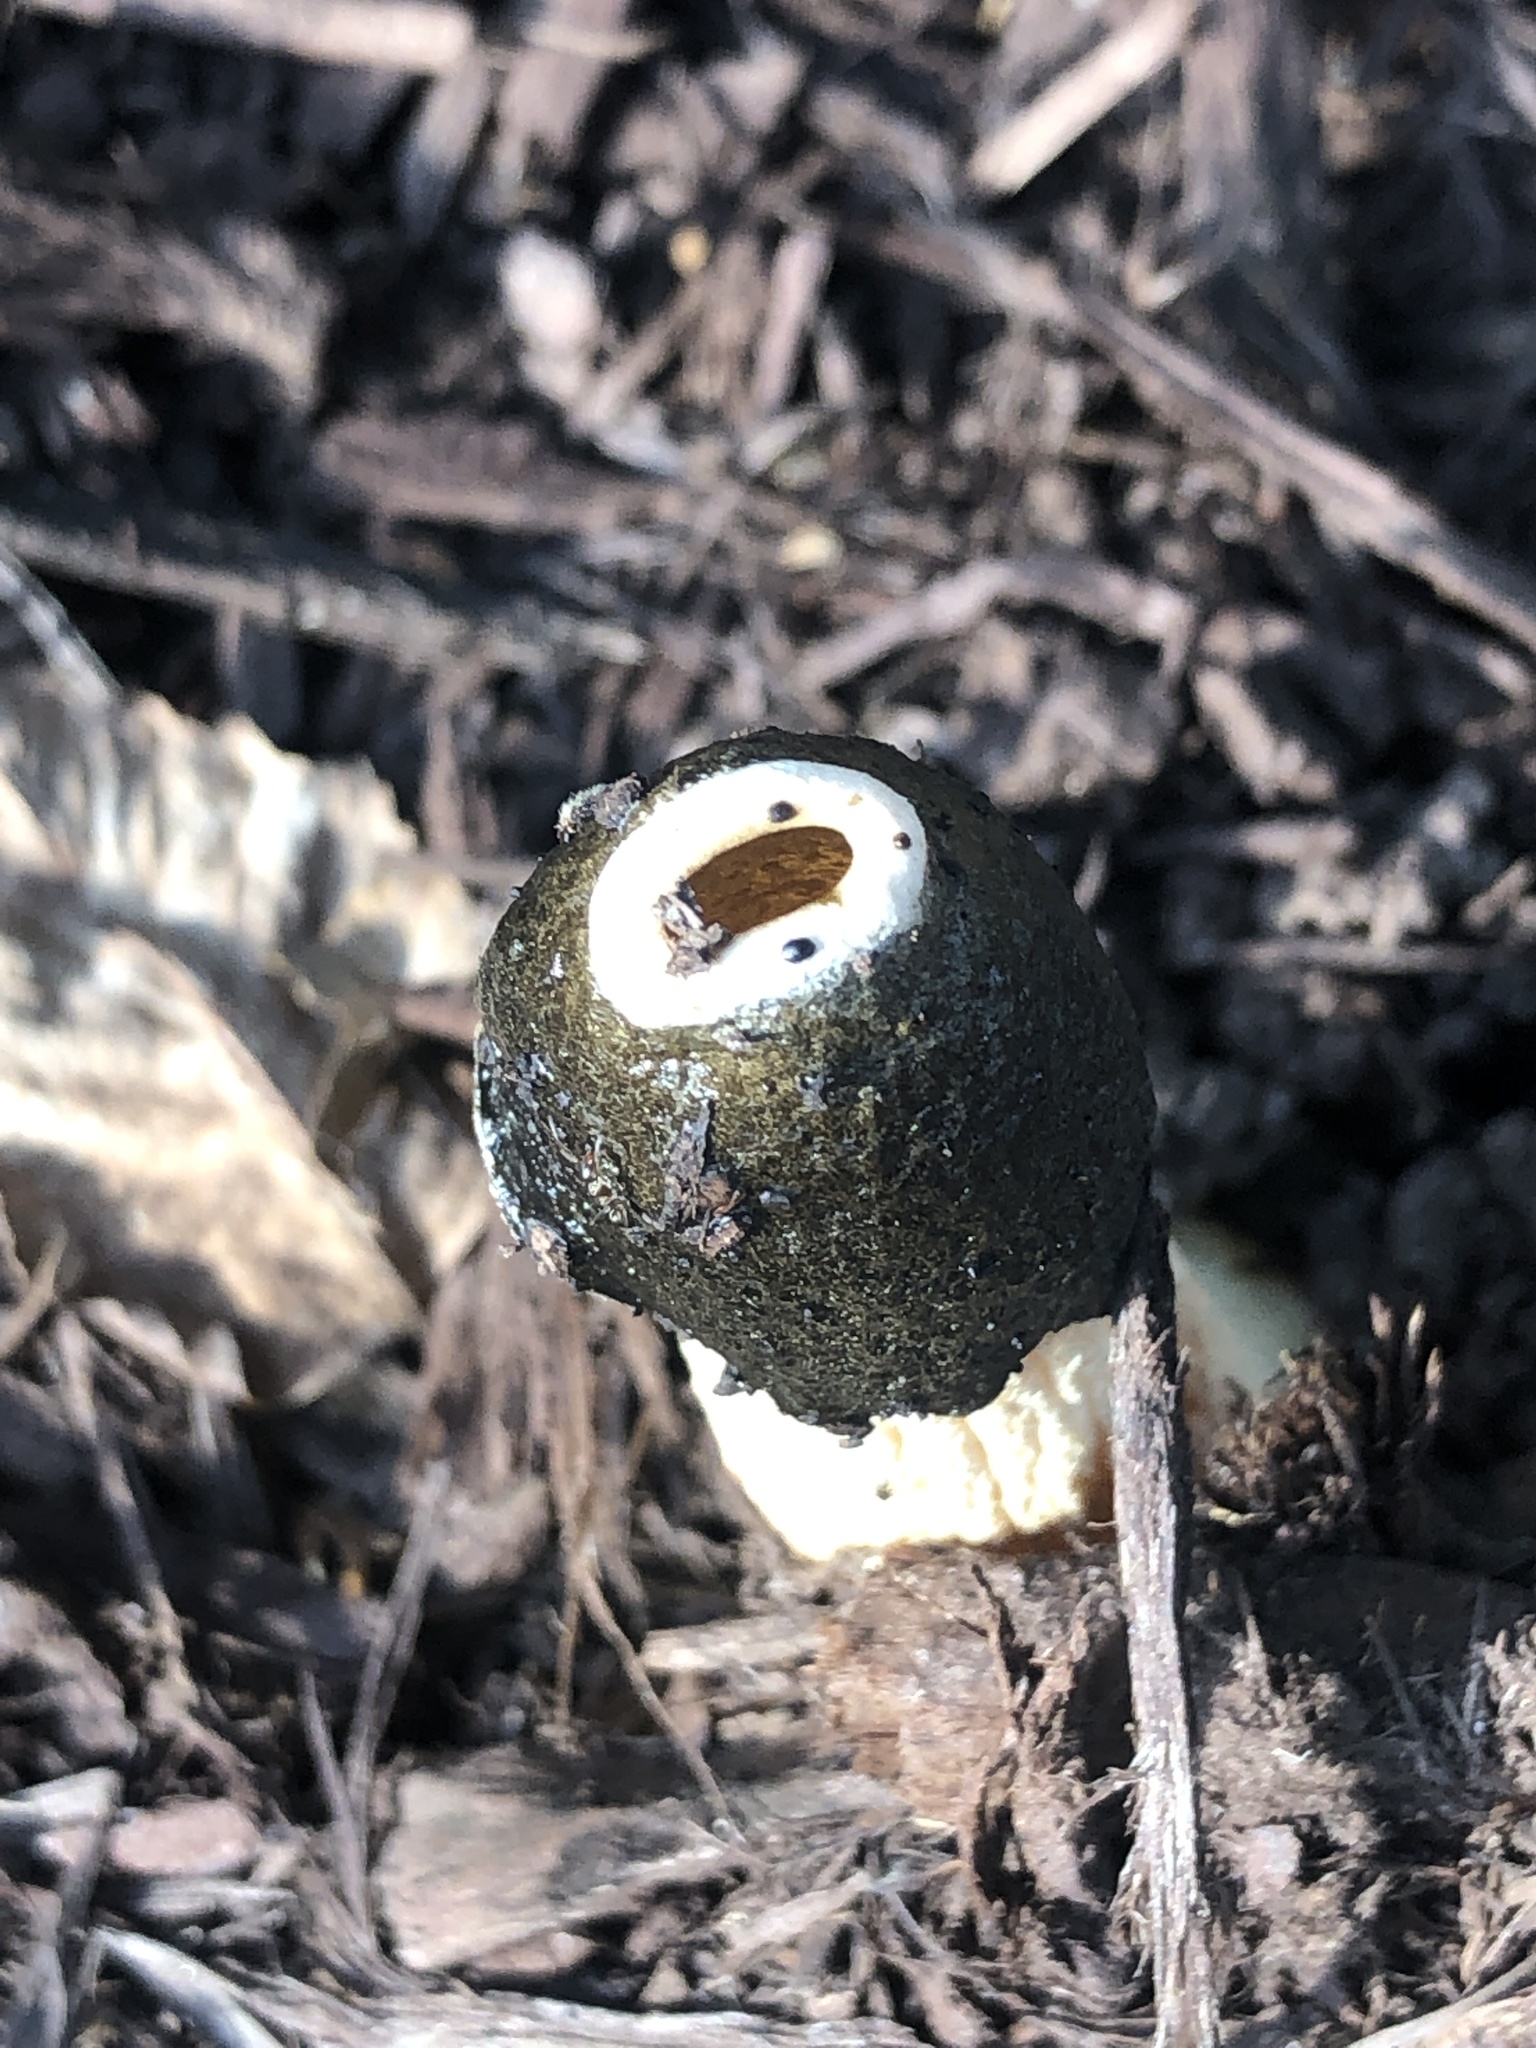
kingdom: Fungi
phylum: Basidiomycota
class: Agaricomycetes
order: Phallales
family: Phallaceae
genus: Phallus
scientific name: Phallus ravenelii
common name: Ravenel's stinkhorn
